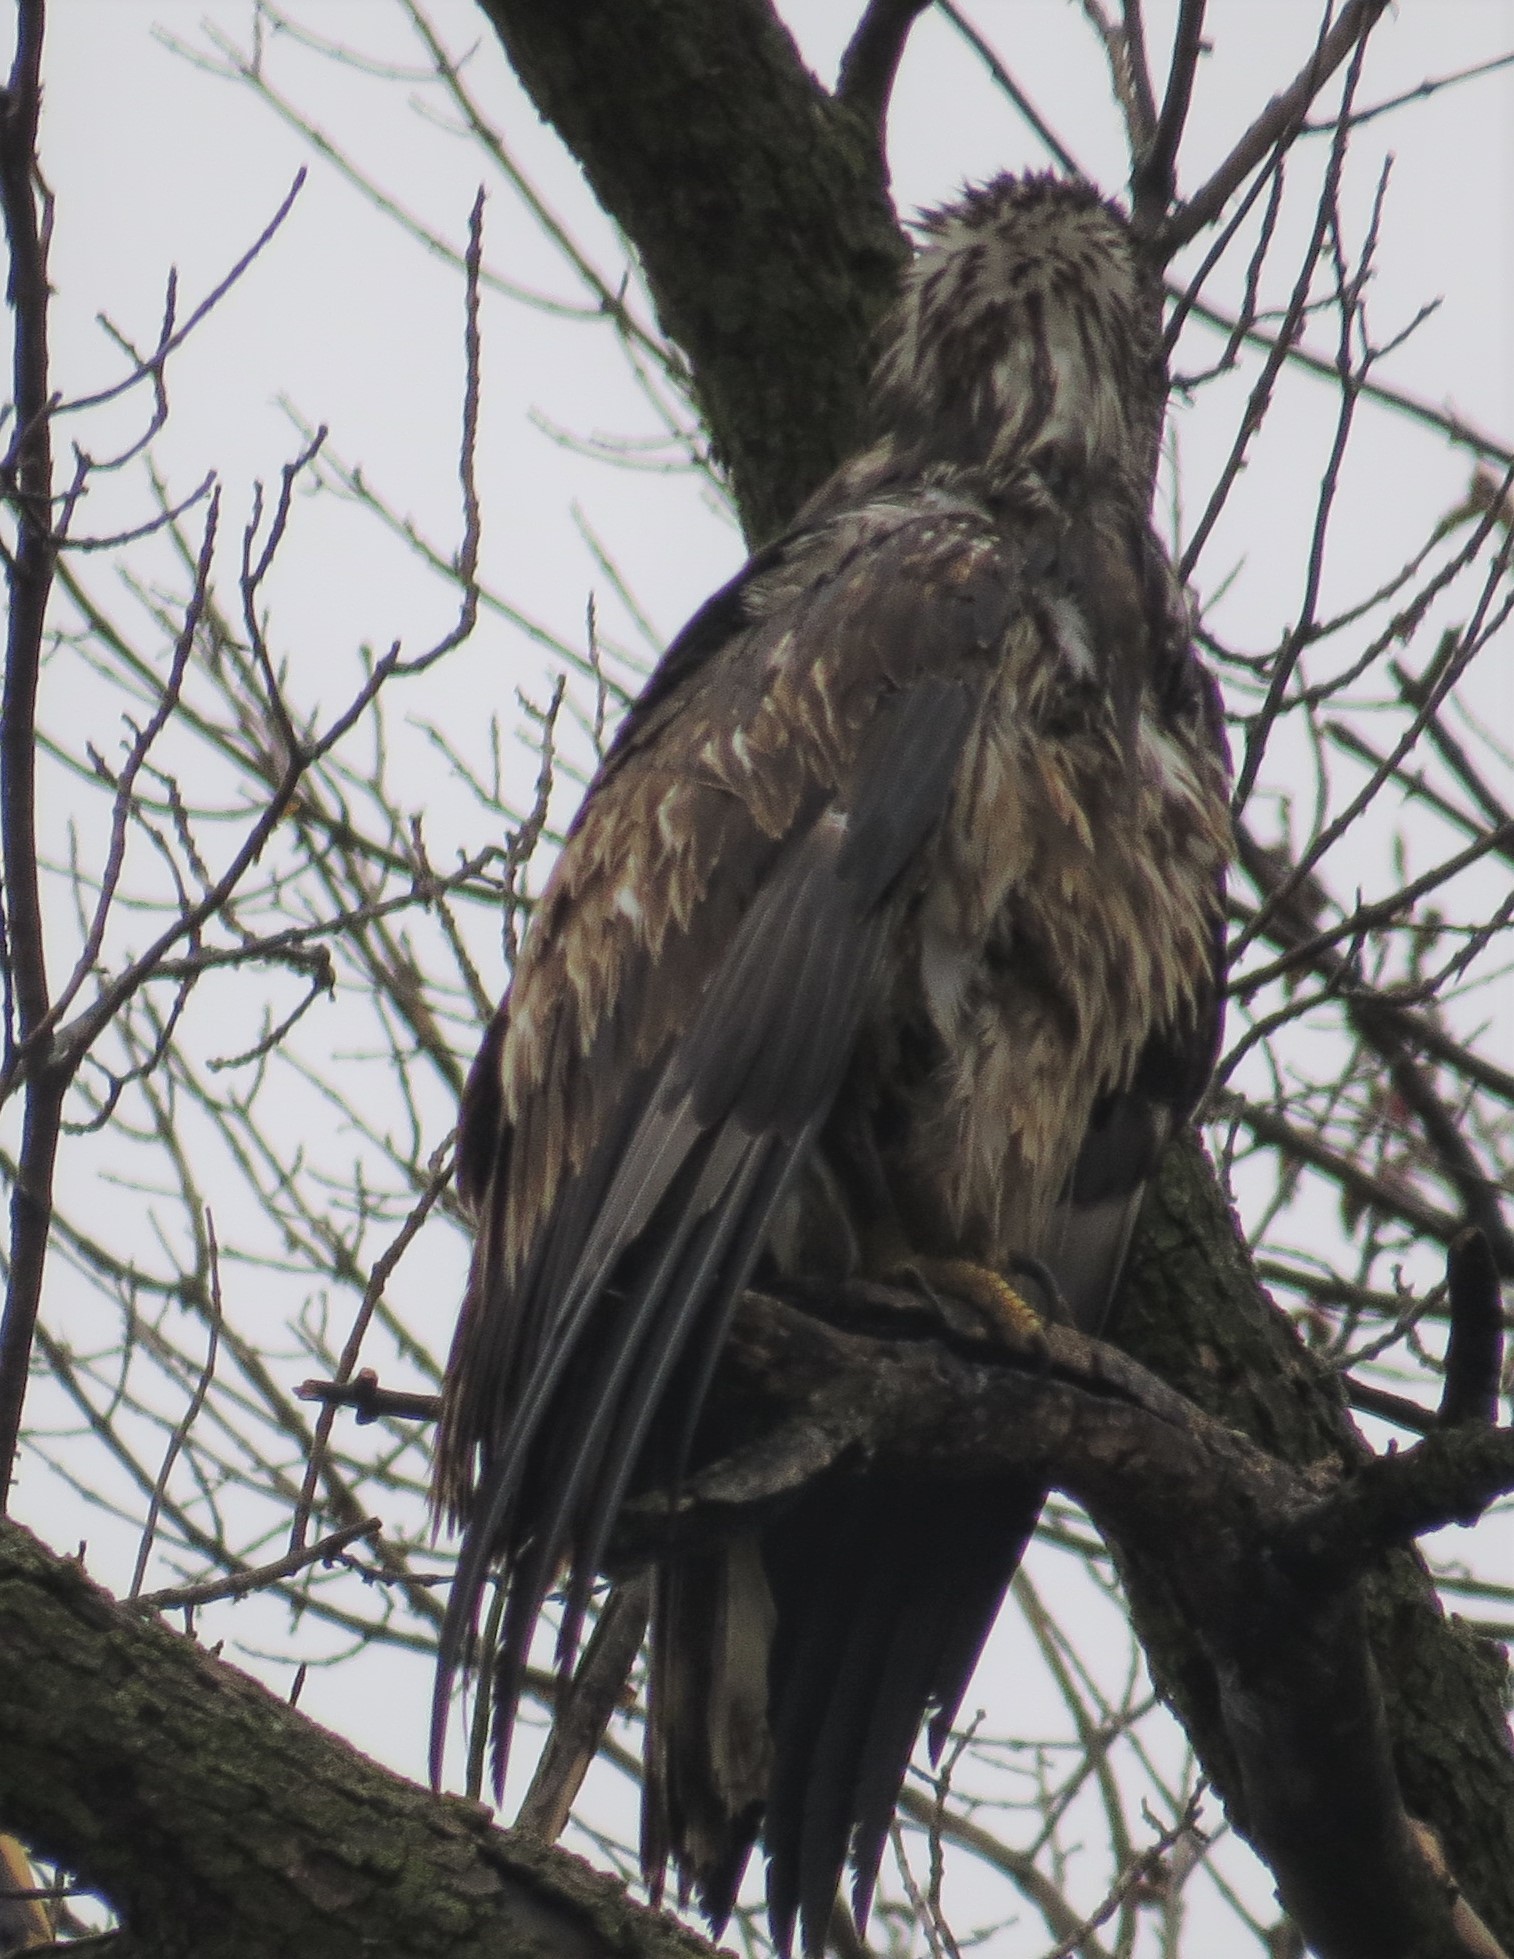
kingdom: Animalia
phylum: Chordata
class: Aves
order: Accipitriformes
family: Accipitridae
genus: Haliaeetus
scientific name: Haliaeetus leucocephalus
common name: Bald eagle
